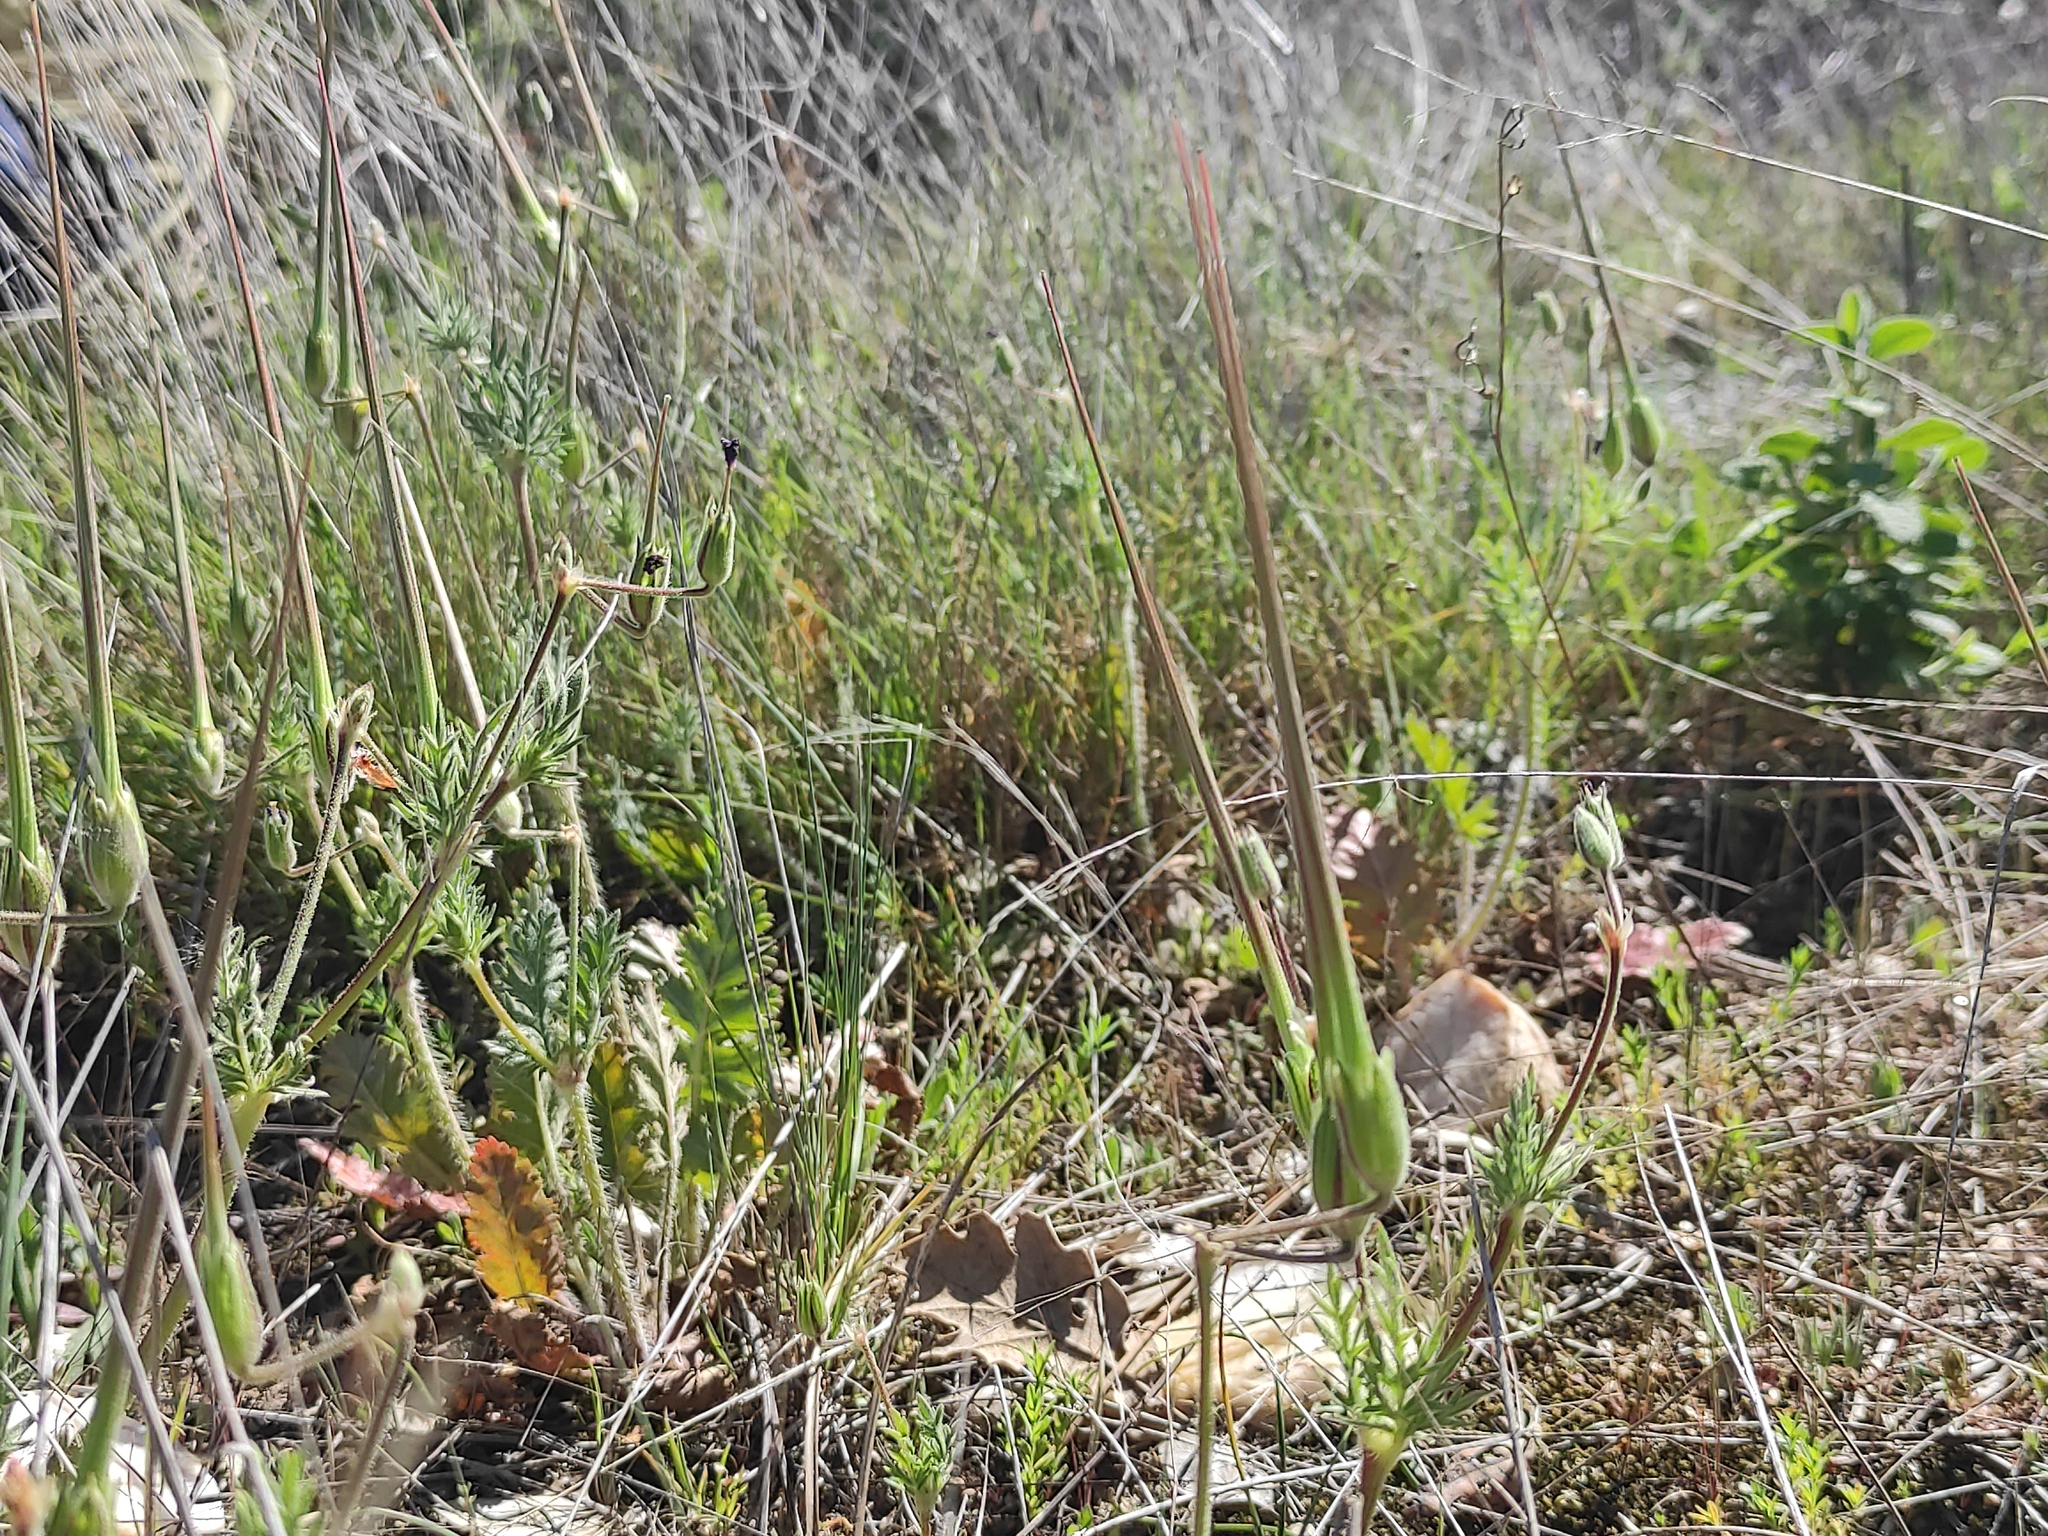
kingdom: Plantae
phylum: Tracheophyta
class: Magnoliopsida
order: Geraniales
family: Geraniaceae
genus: Erodium
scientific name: Erodium botrys
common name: Mediterranean stork's-bill
